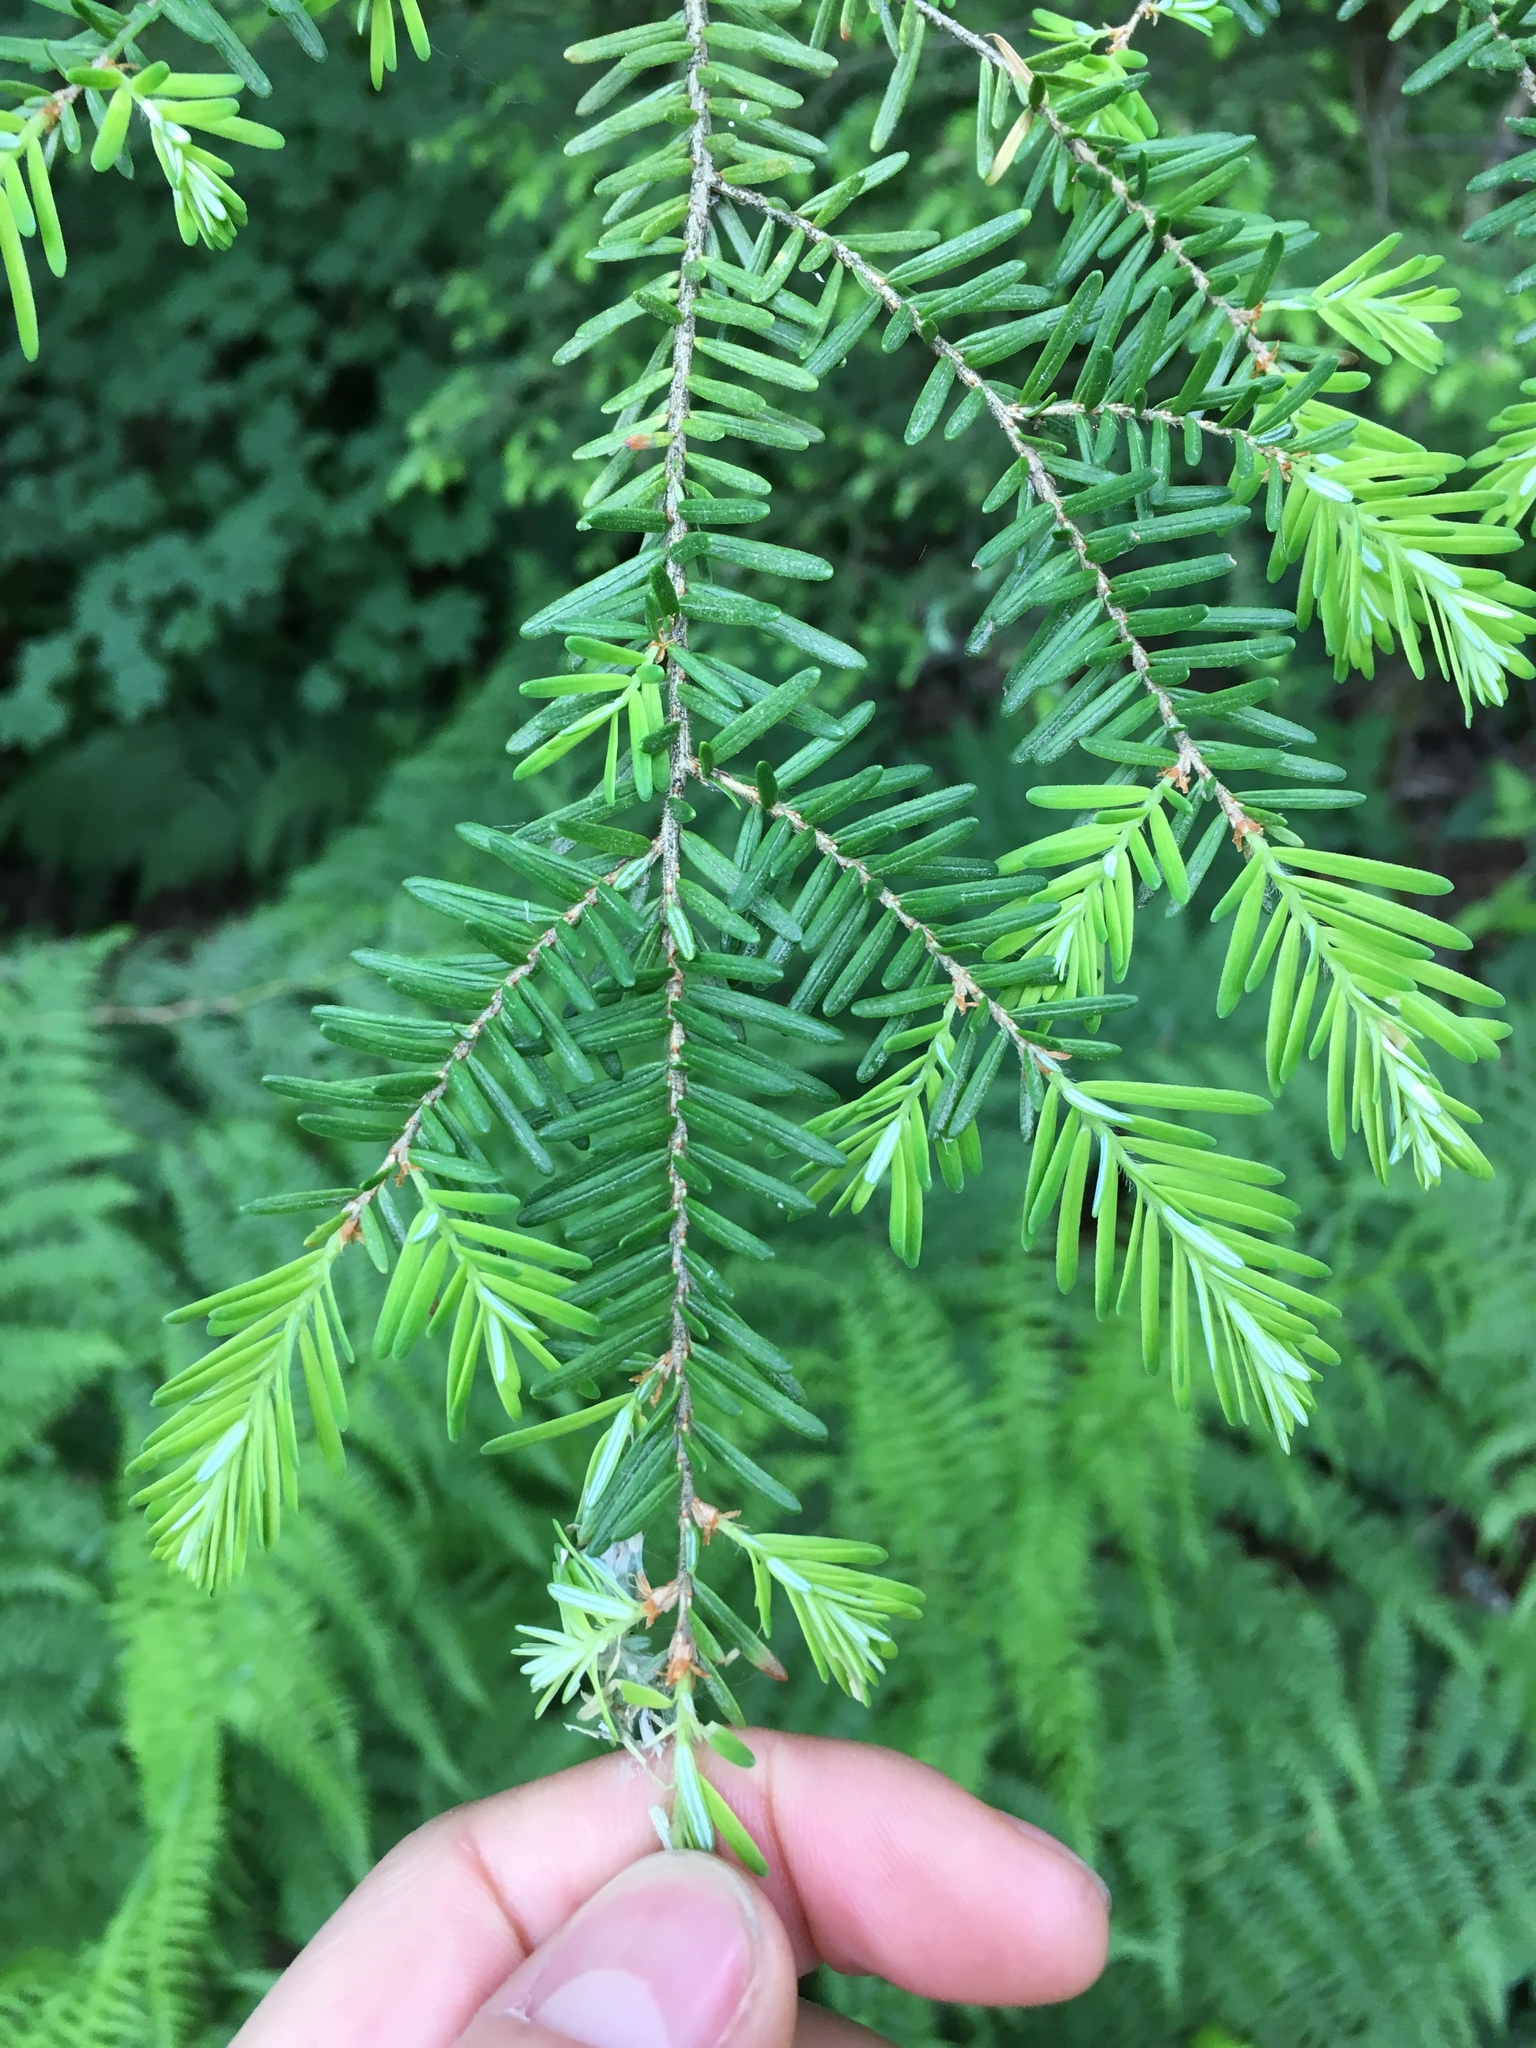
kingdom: Plantae
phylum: Tracheophyta
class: Pinopsida
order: Pinales
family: Pinaceae
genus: Tsuga
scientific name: Tsuga heterophylla
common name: Western hemlock
